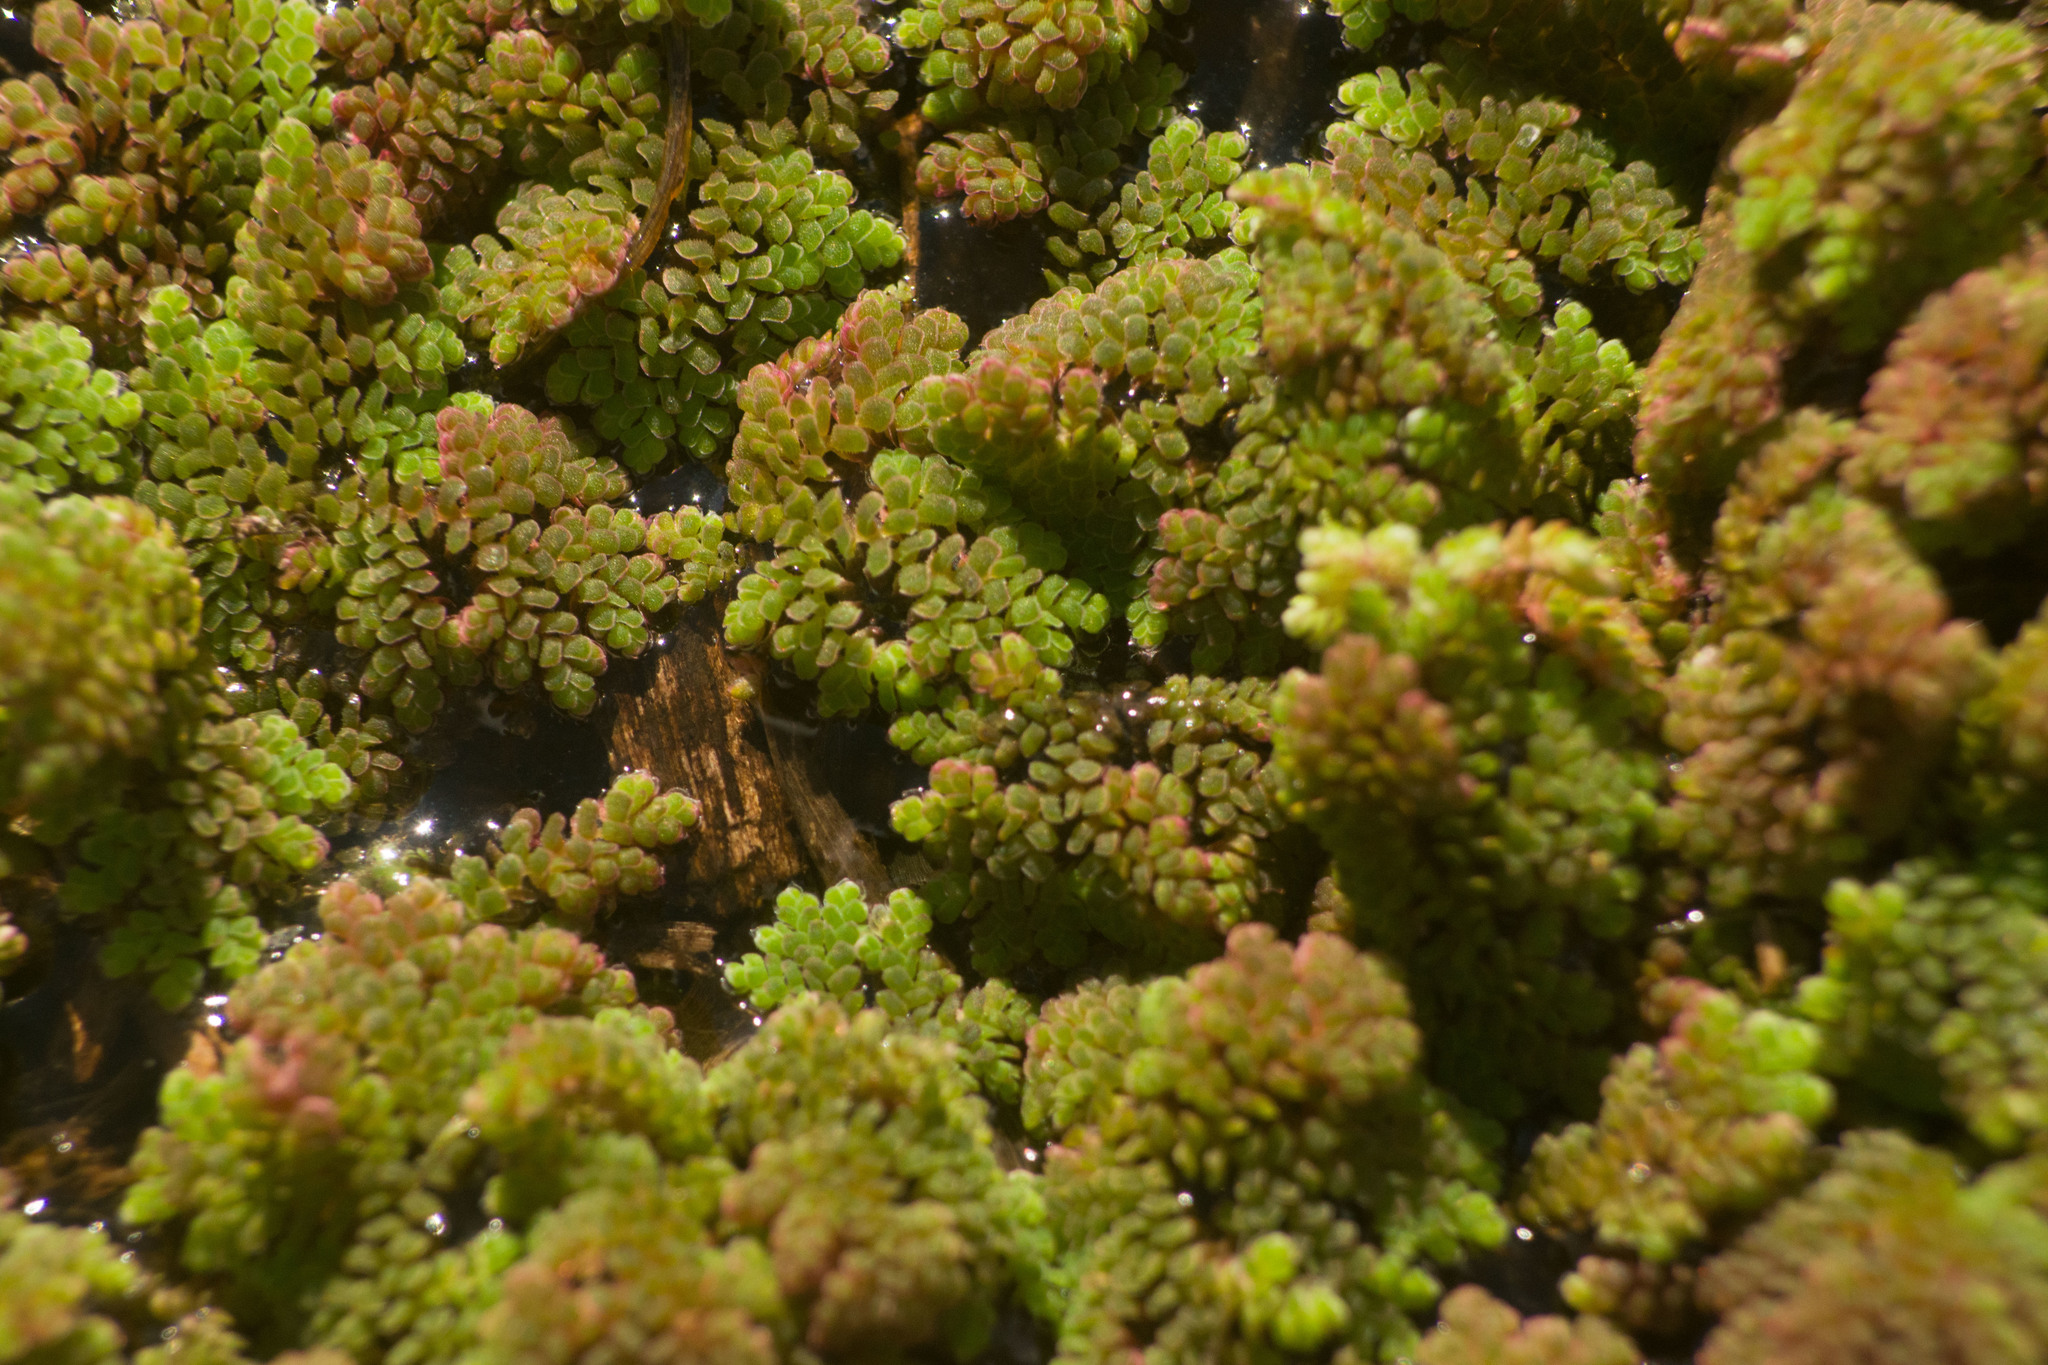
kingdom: Plantae
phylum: Tracheophyta
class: Polypodiopsida
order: Salviniales
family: Salviniaceae
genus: Azolla
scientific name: Azolla filiculoides
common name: Water fern
